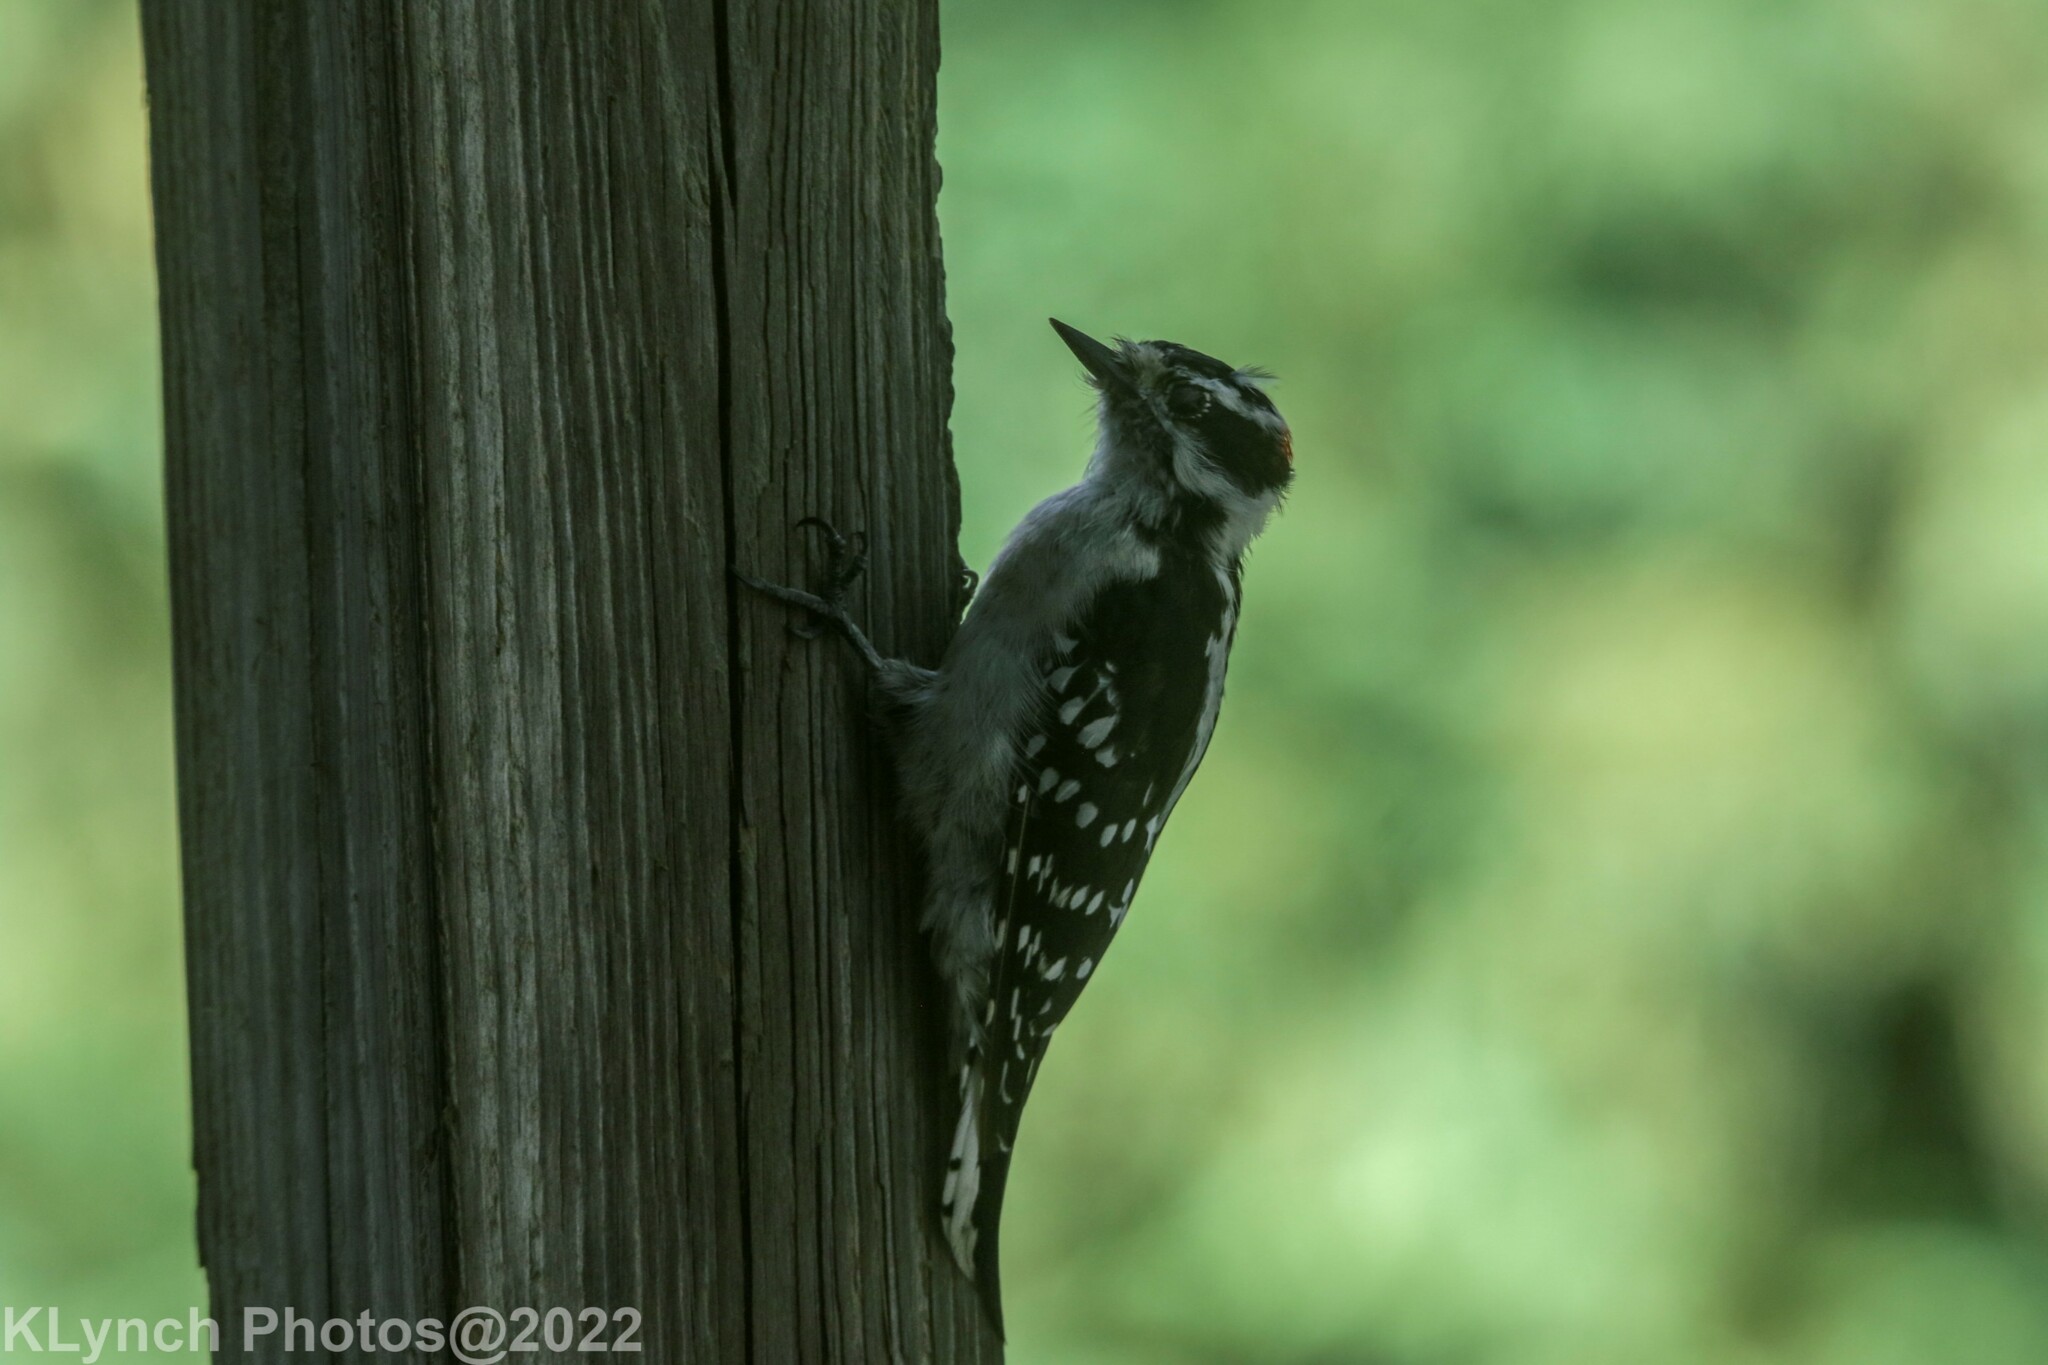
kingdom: Animalia
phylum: Chordata
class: Aves
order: Piciformes
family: Picidae
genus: Dryobates
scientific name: Dryobates pubescens
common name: Downy woodpecker
